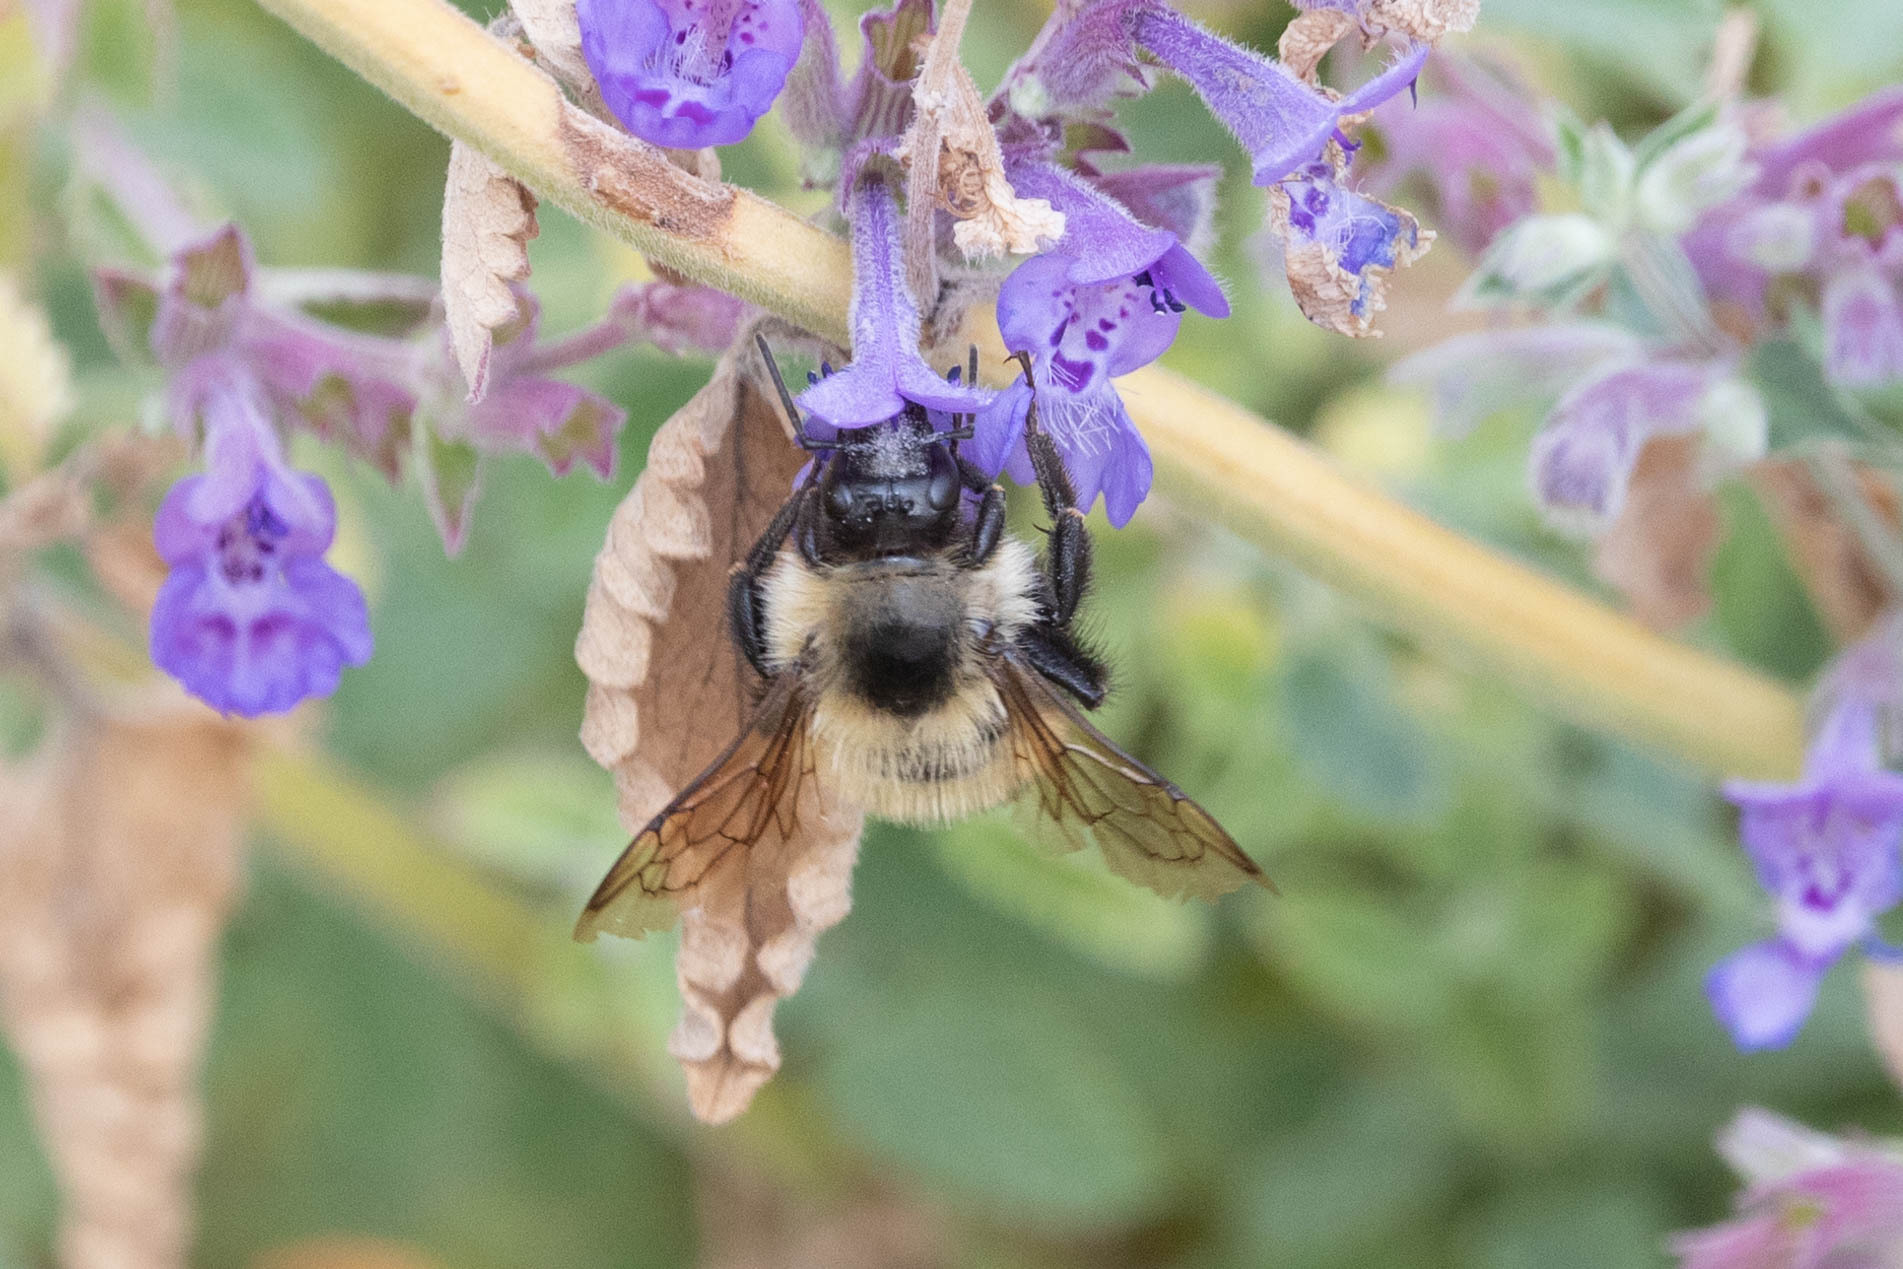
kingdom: Animalia
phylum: Arthropoda
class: Insecta
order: Hymenoptera
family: Apidae
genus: Bombus
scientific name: Bombus vagans
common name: Half-black bumble bee
